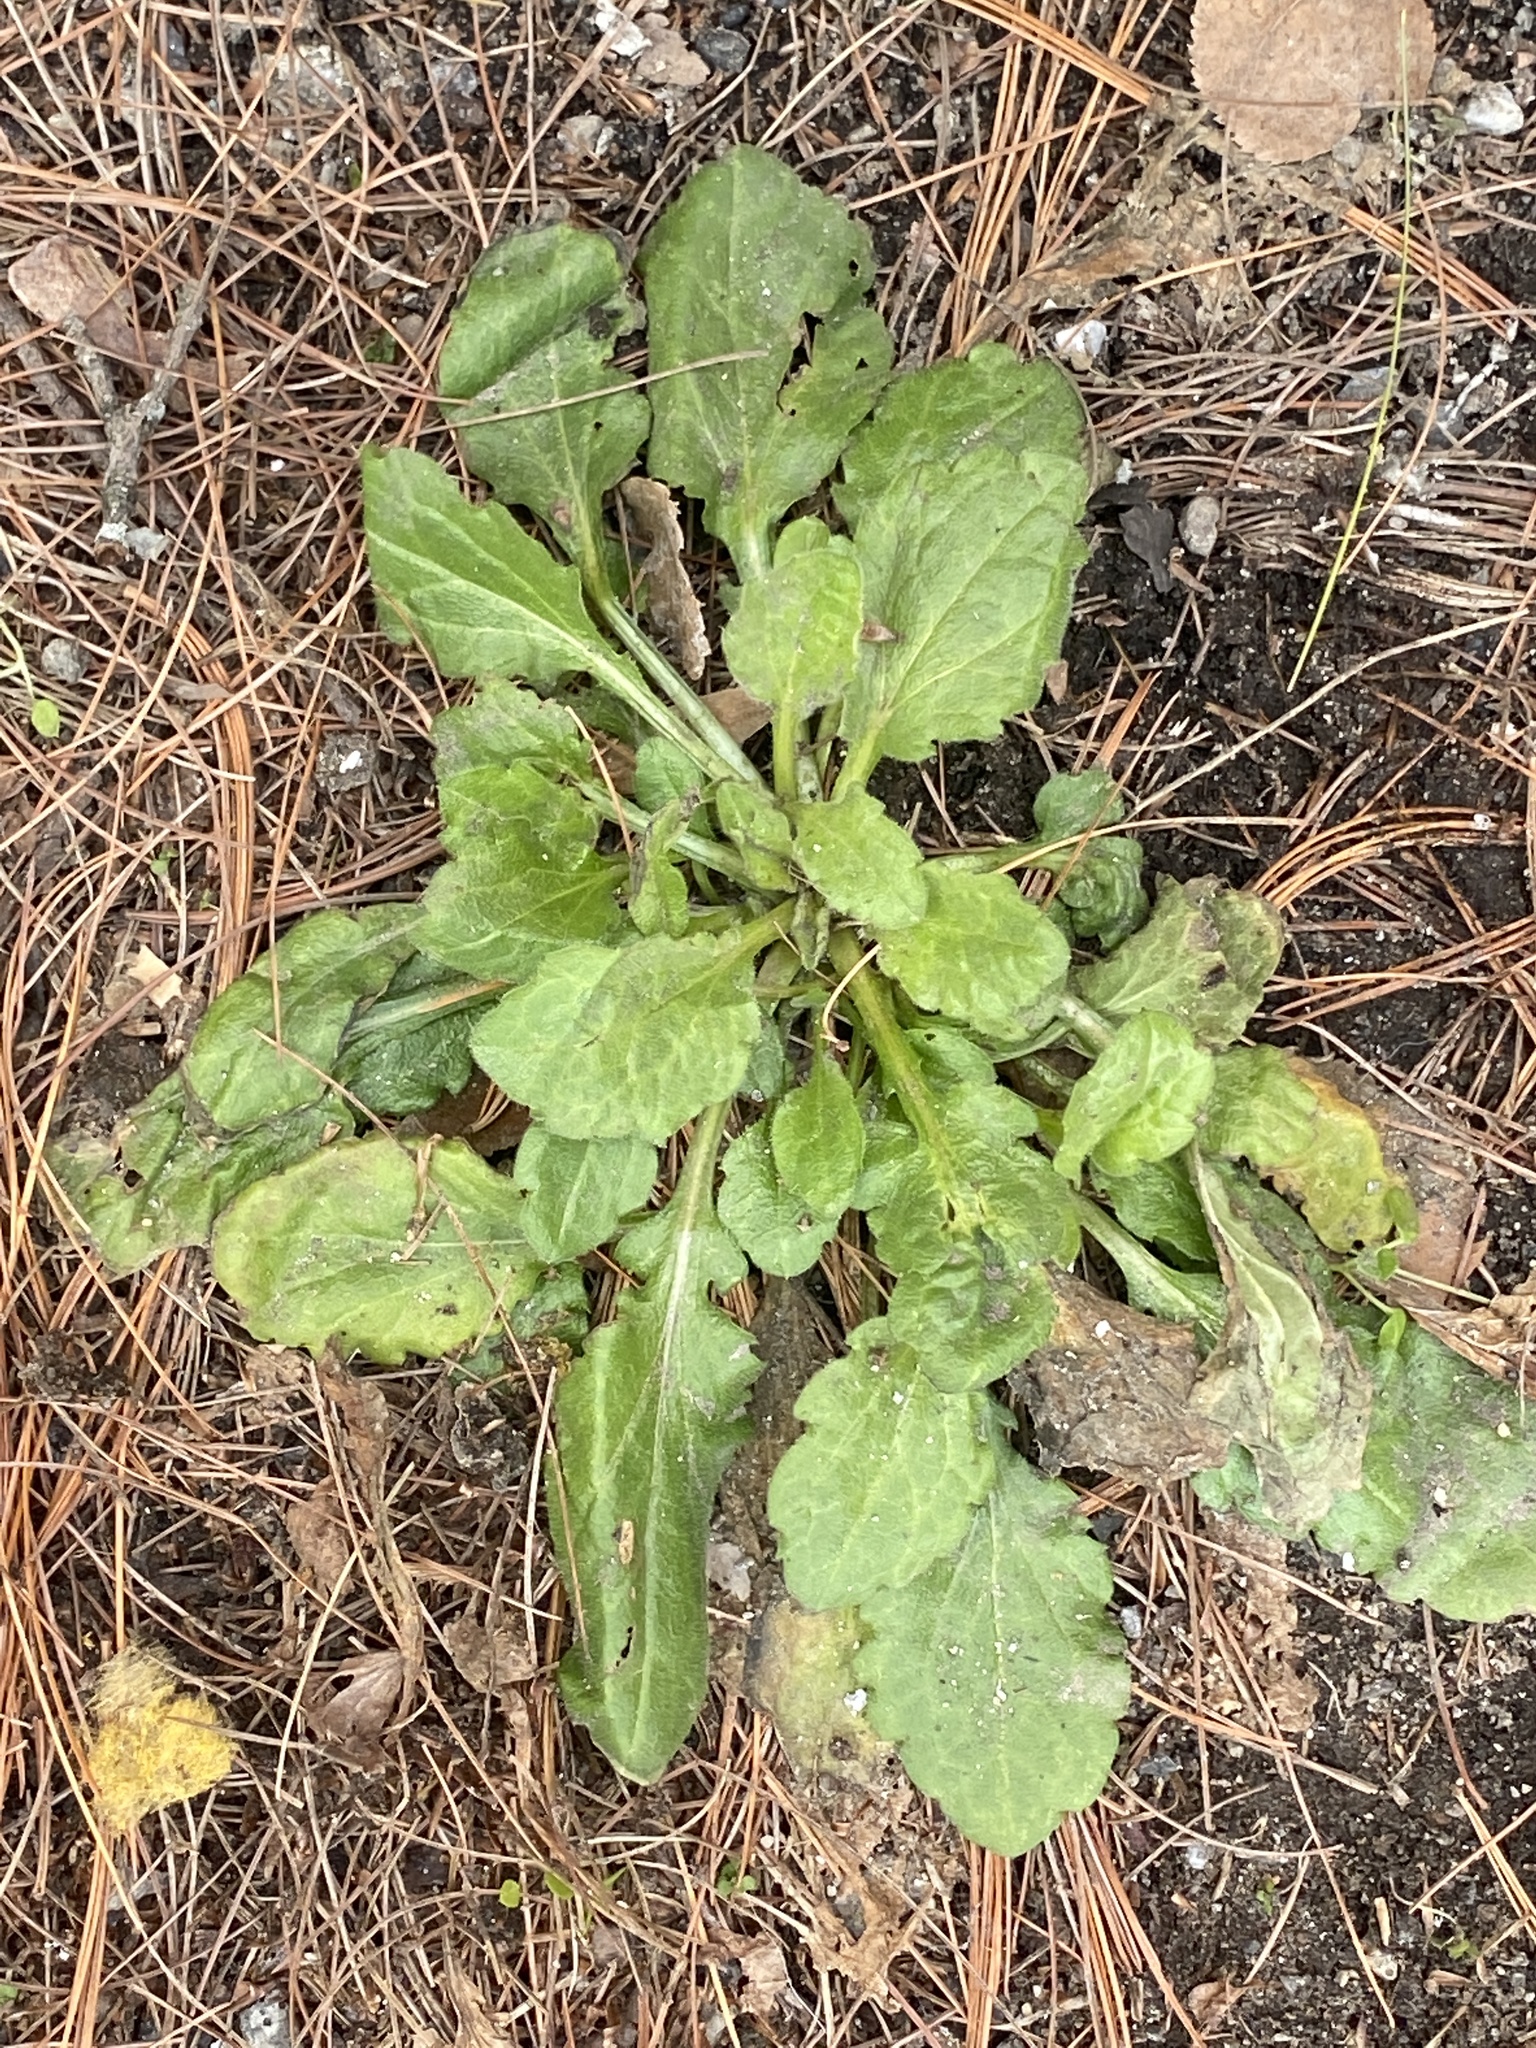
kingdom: Plantae
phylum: Tracheophyta
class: Magnoliopsida
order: Asterales
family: Asteraceae
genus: Erigeron
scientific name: Erigeron canadensis
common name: Canadian fleabane
